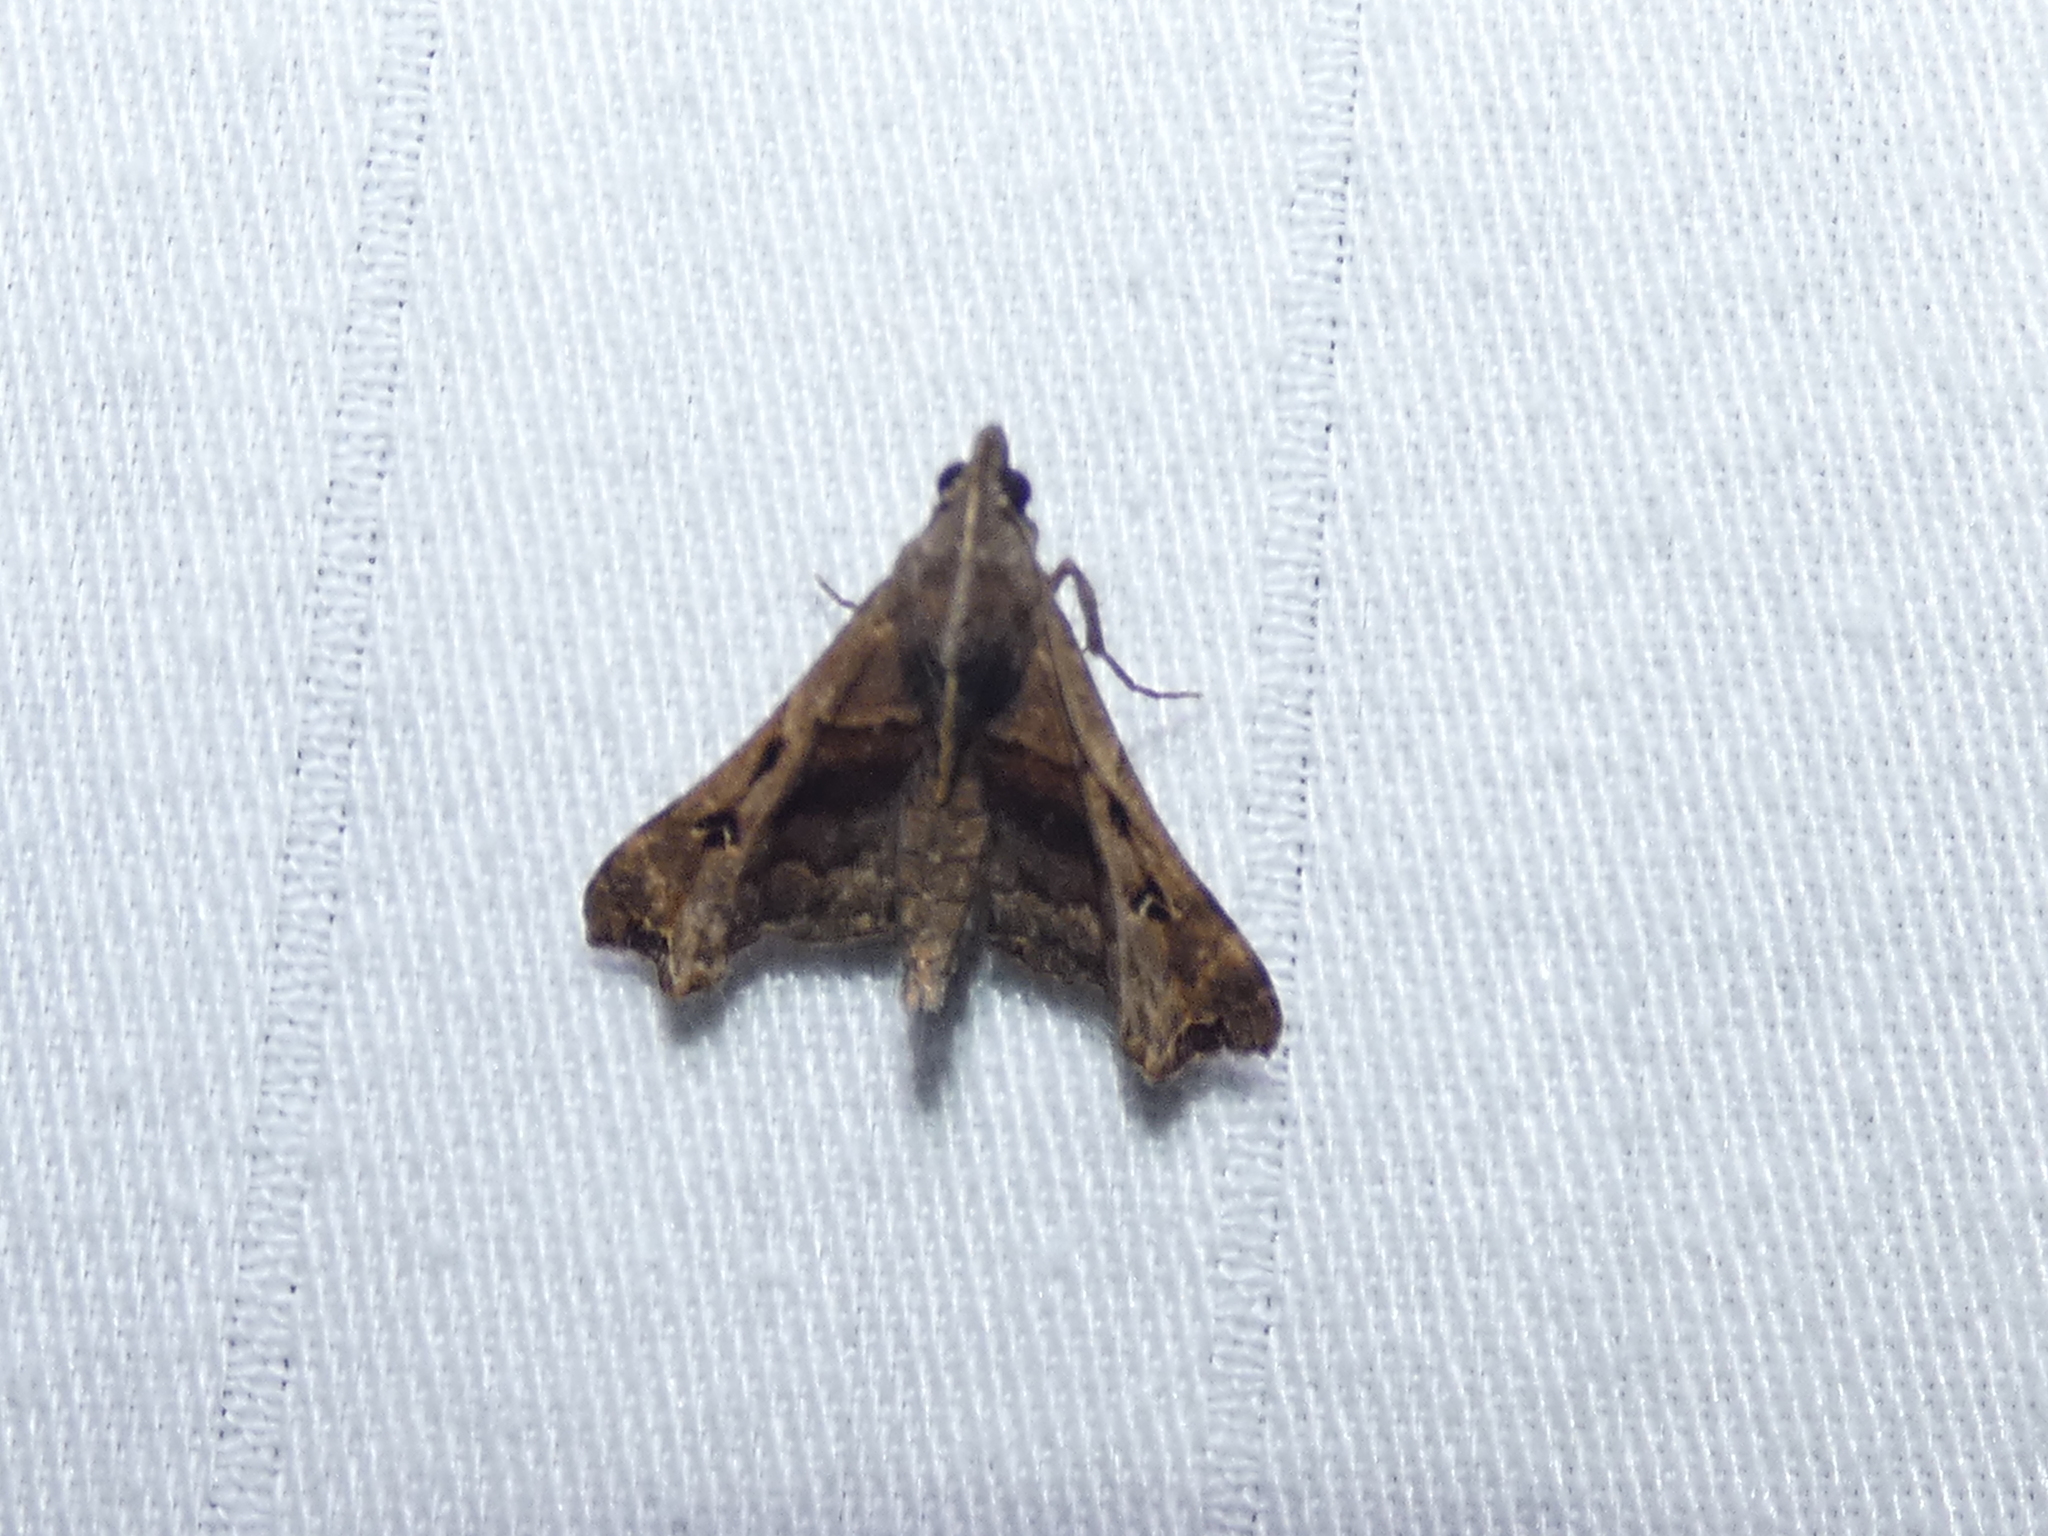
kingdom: Animalia
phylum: Arthropoda
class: Insecta
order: Lepidoptera
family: Erebidae
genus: Palthis
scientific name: Palthis asopialis
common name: Faint-spotted palthis moth
